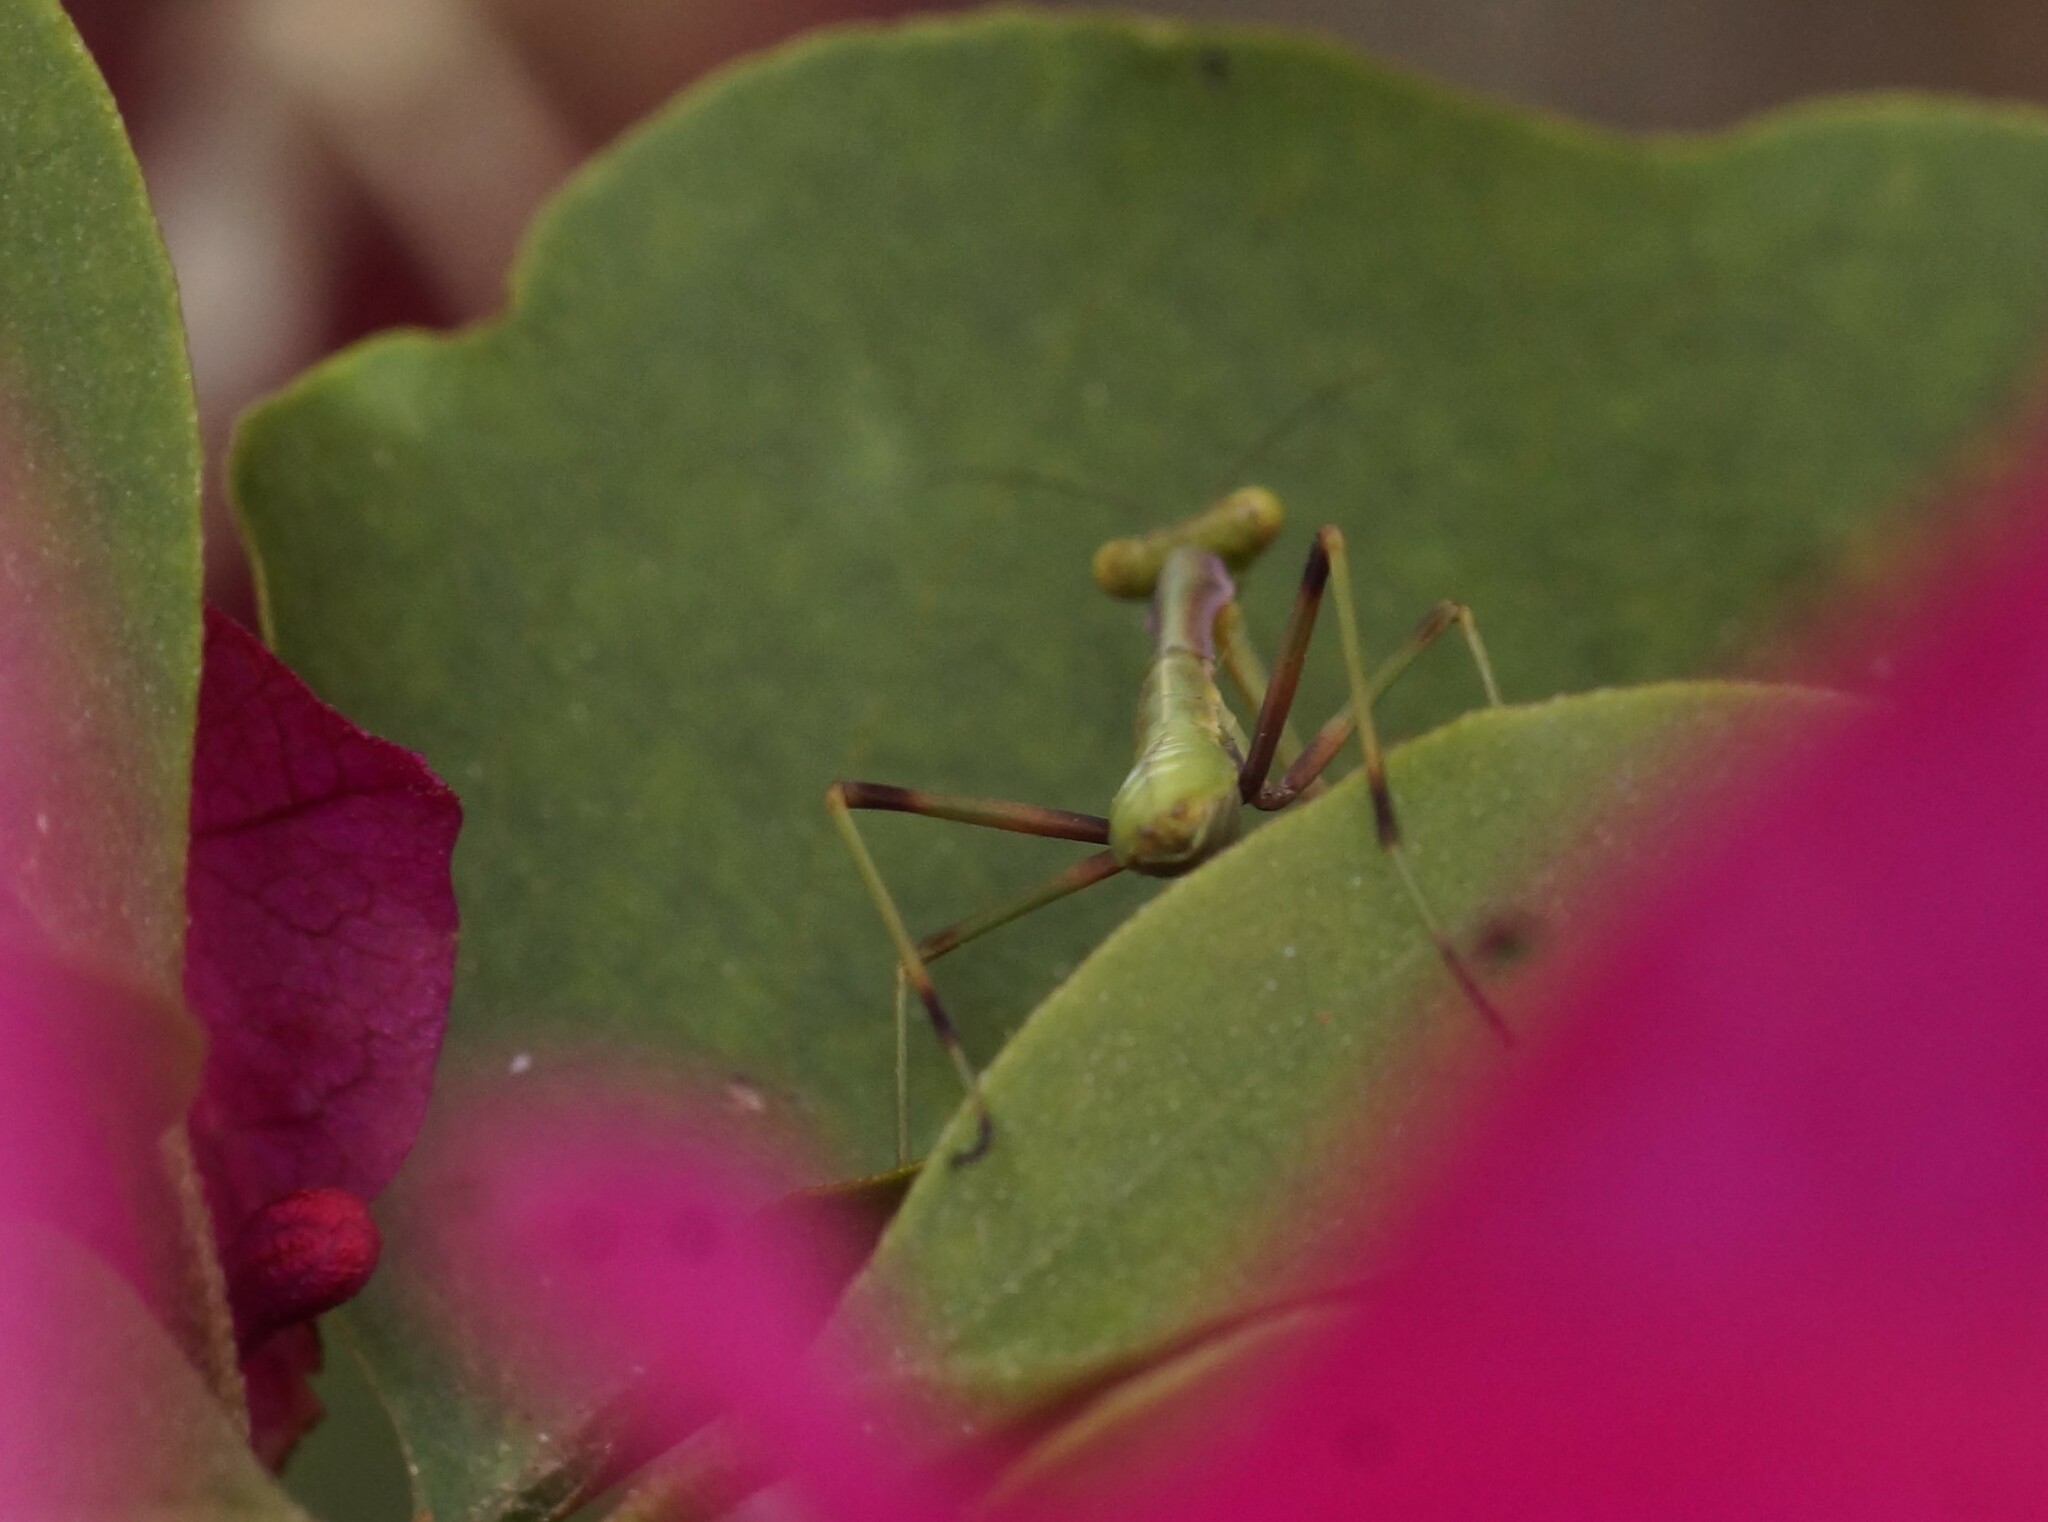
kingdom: Animalia
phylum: Arthropoda
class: Insecta
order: Mantodea
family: Mantidae
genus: Pseudomantis
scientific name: Pseudomantis albofimbriata
